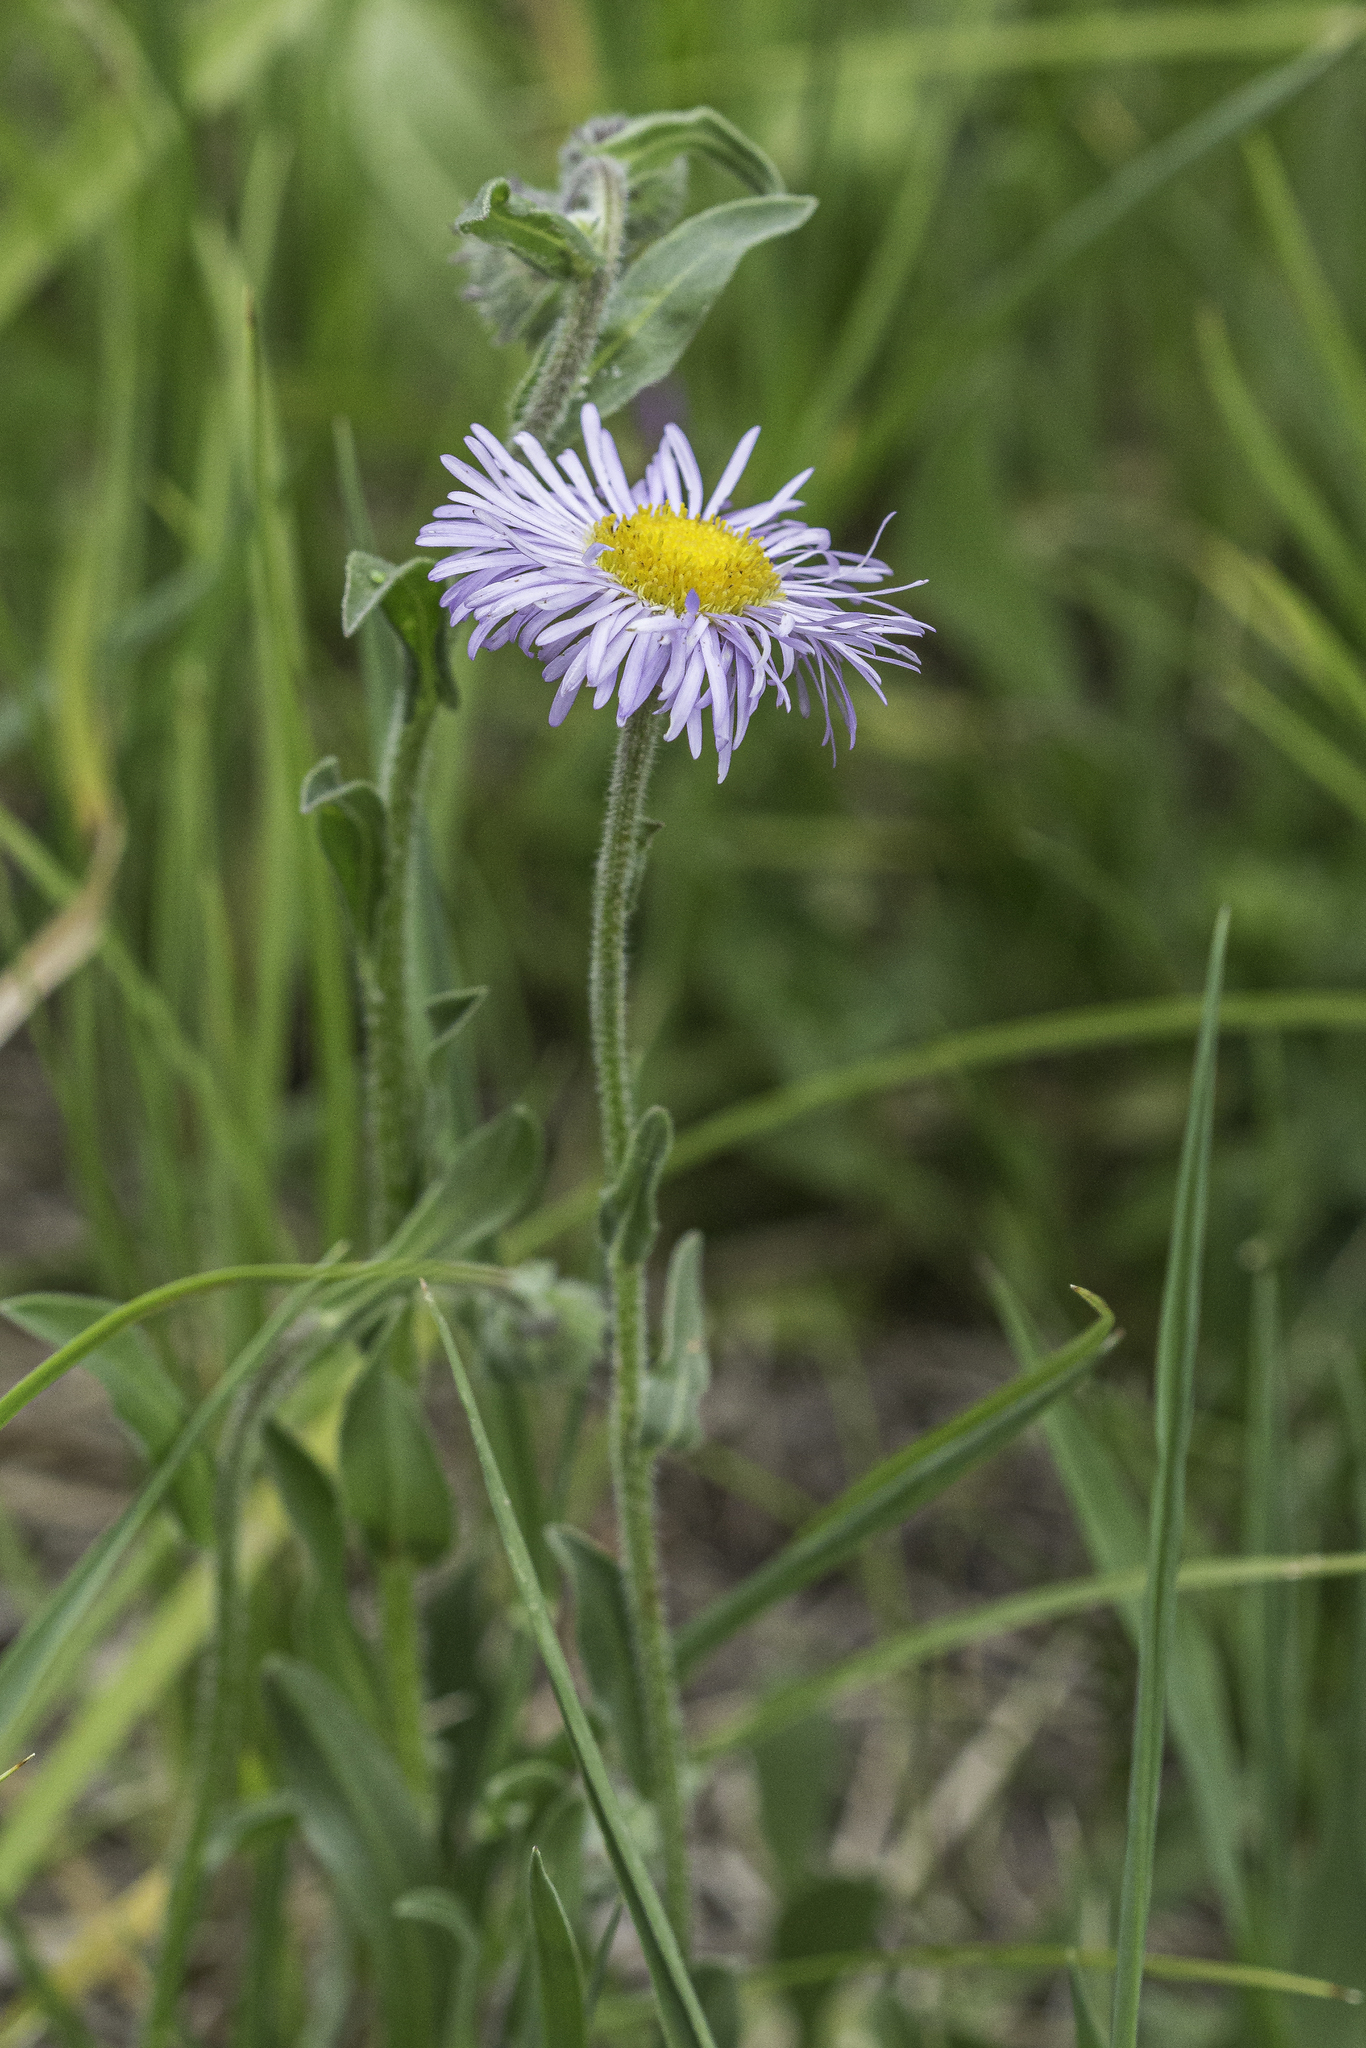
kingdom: Plantae
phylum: Tracheophyta
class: Magnoliopsida
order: Asterales
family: Asteraceae
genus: Erigeron
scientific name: Erigeron formosissimus
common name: Beautiful fleabane
